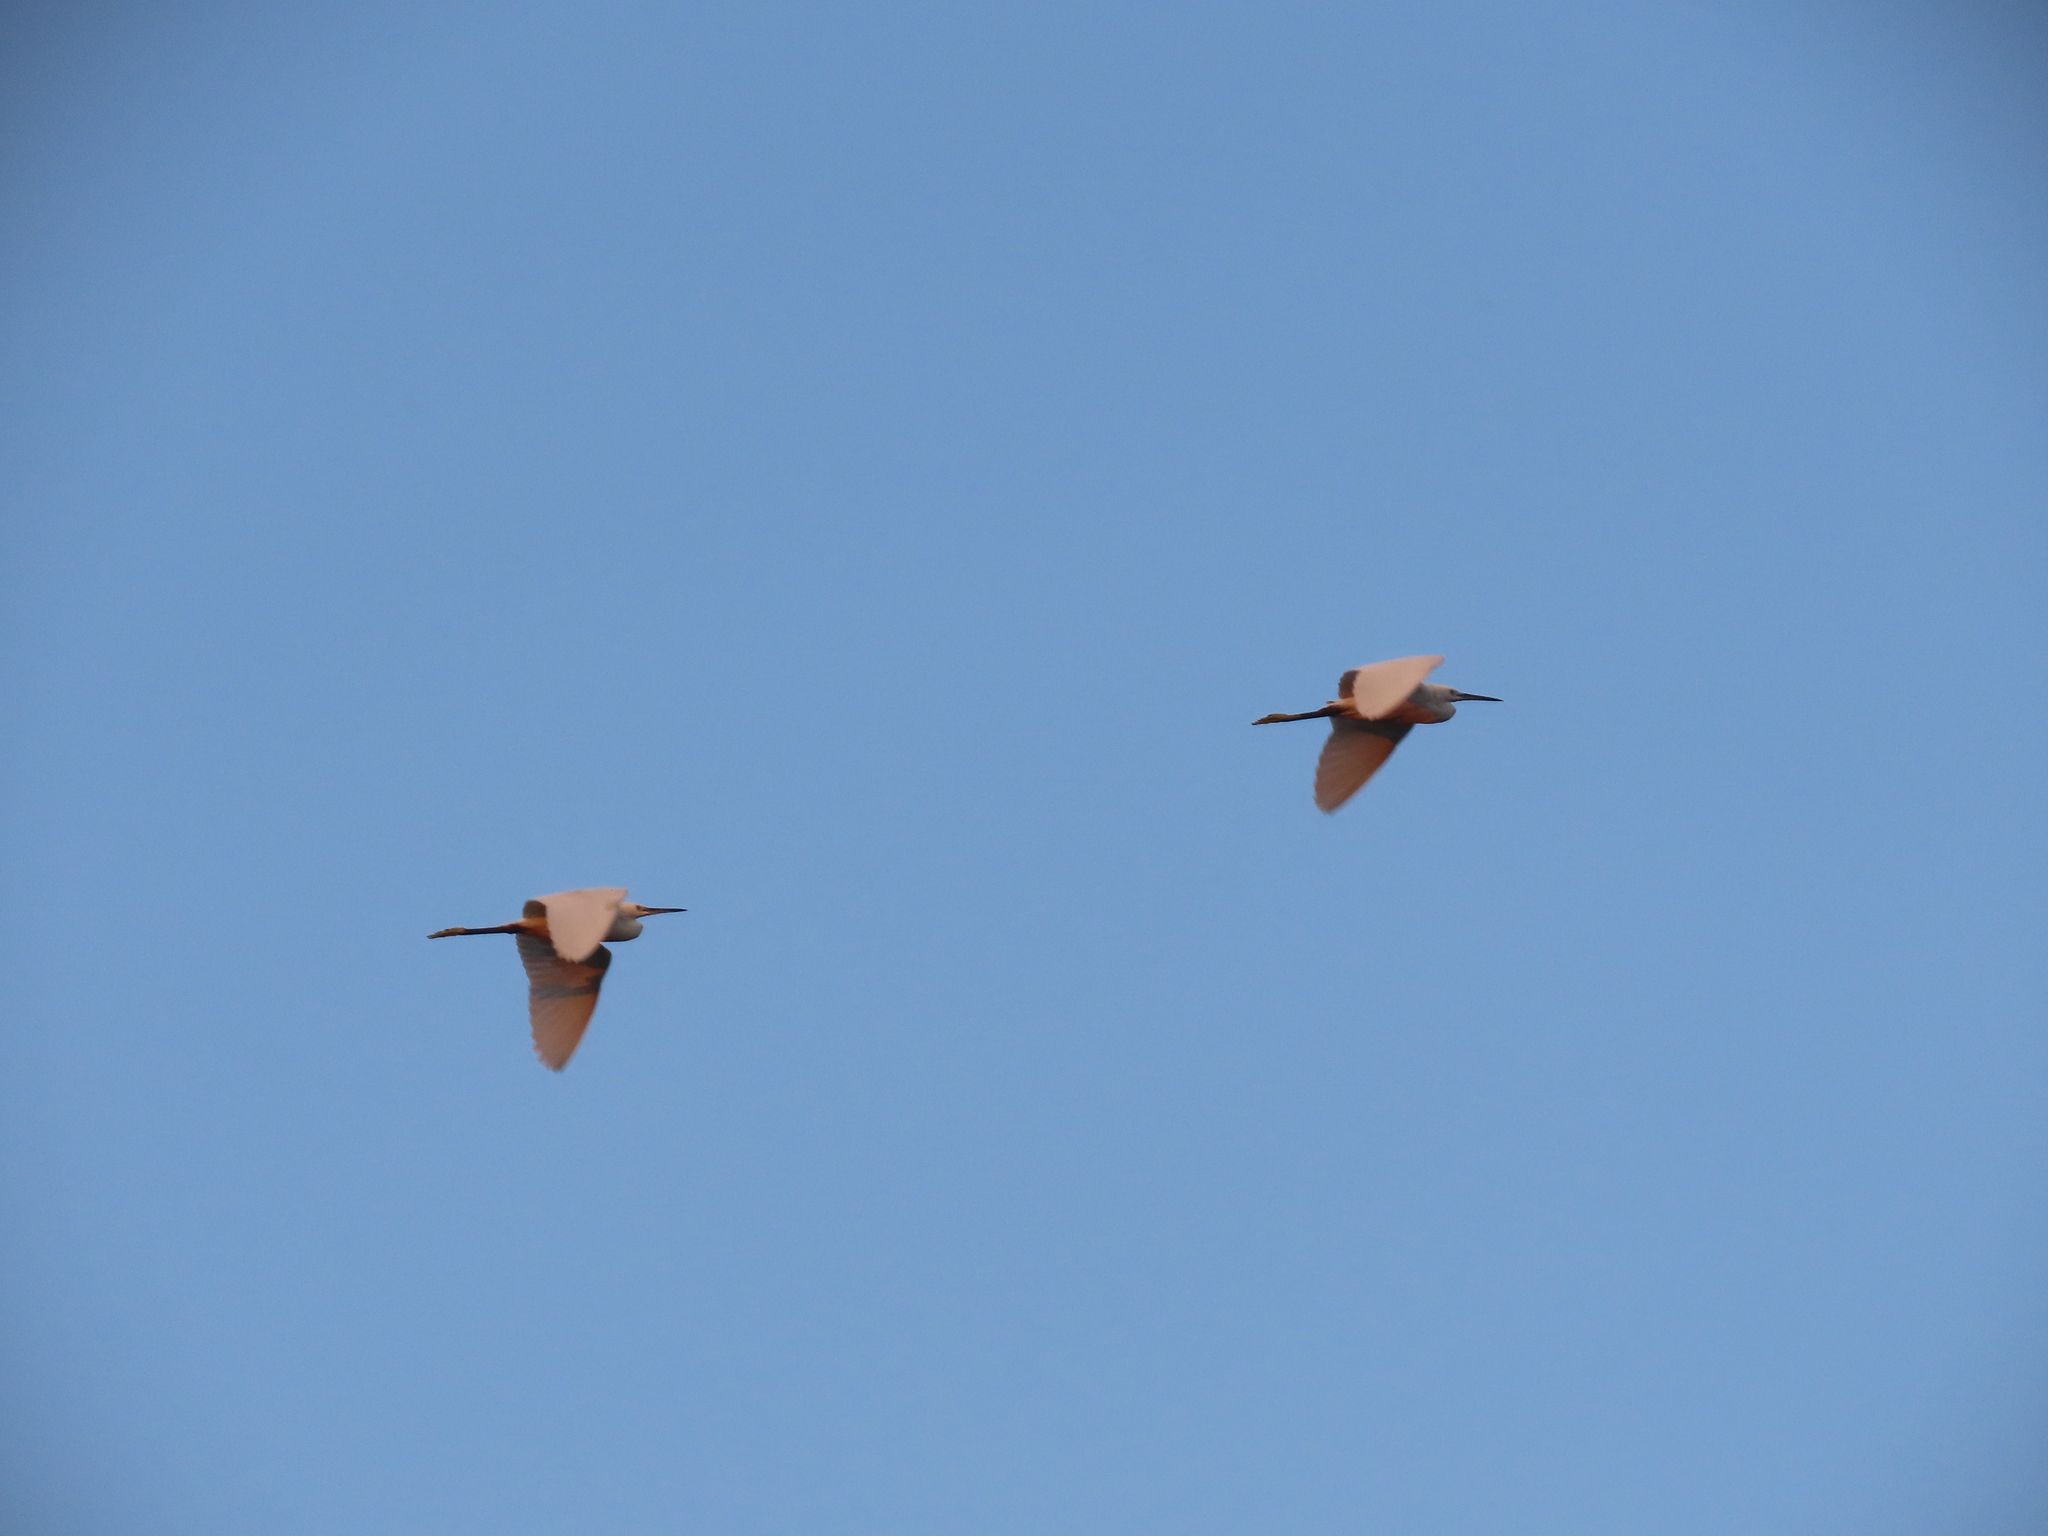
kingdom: Animalia
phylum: Chordata
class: Aves
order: Pelecaniformes
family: Ardeidae
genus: Egretta
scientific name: Egretta garzetta
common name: Little egret
